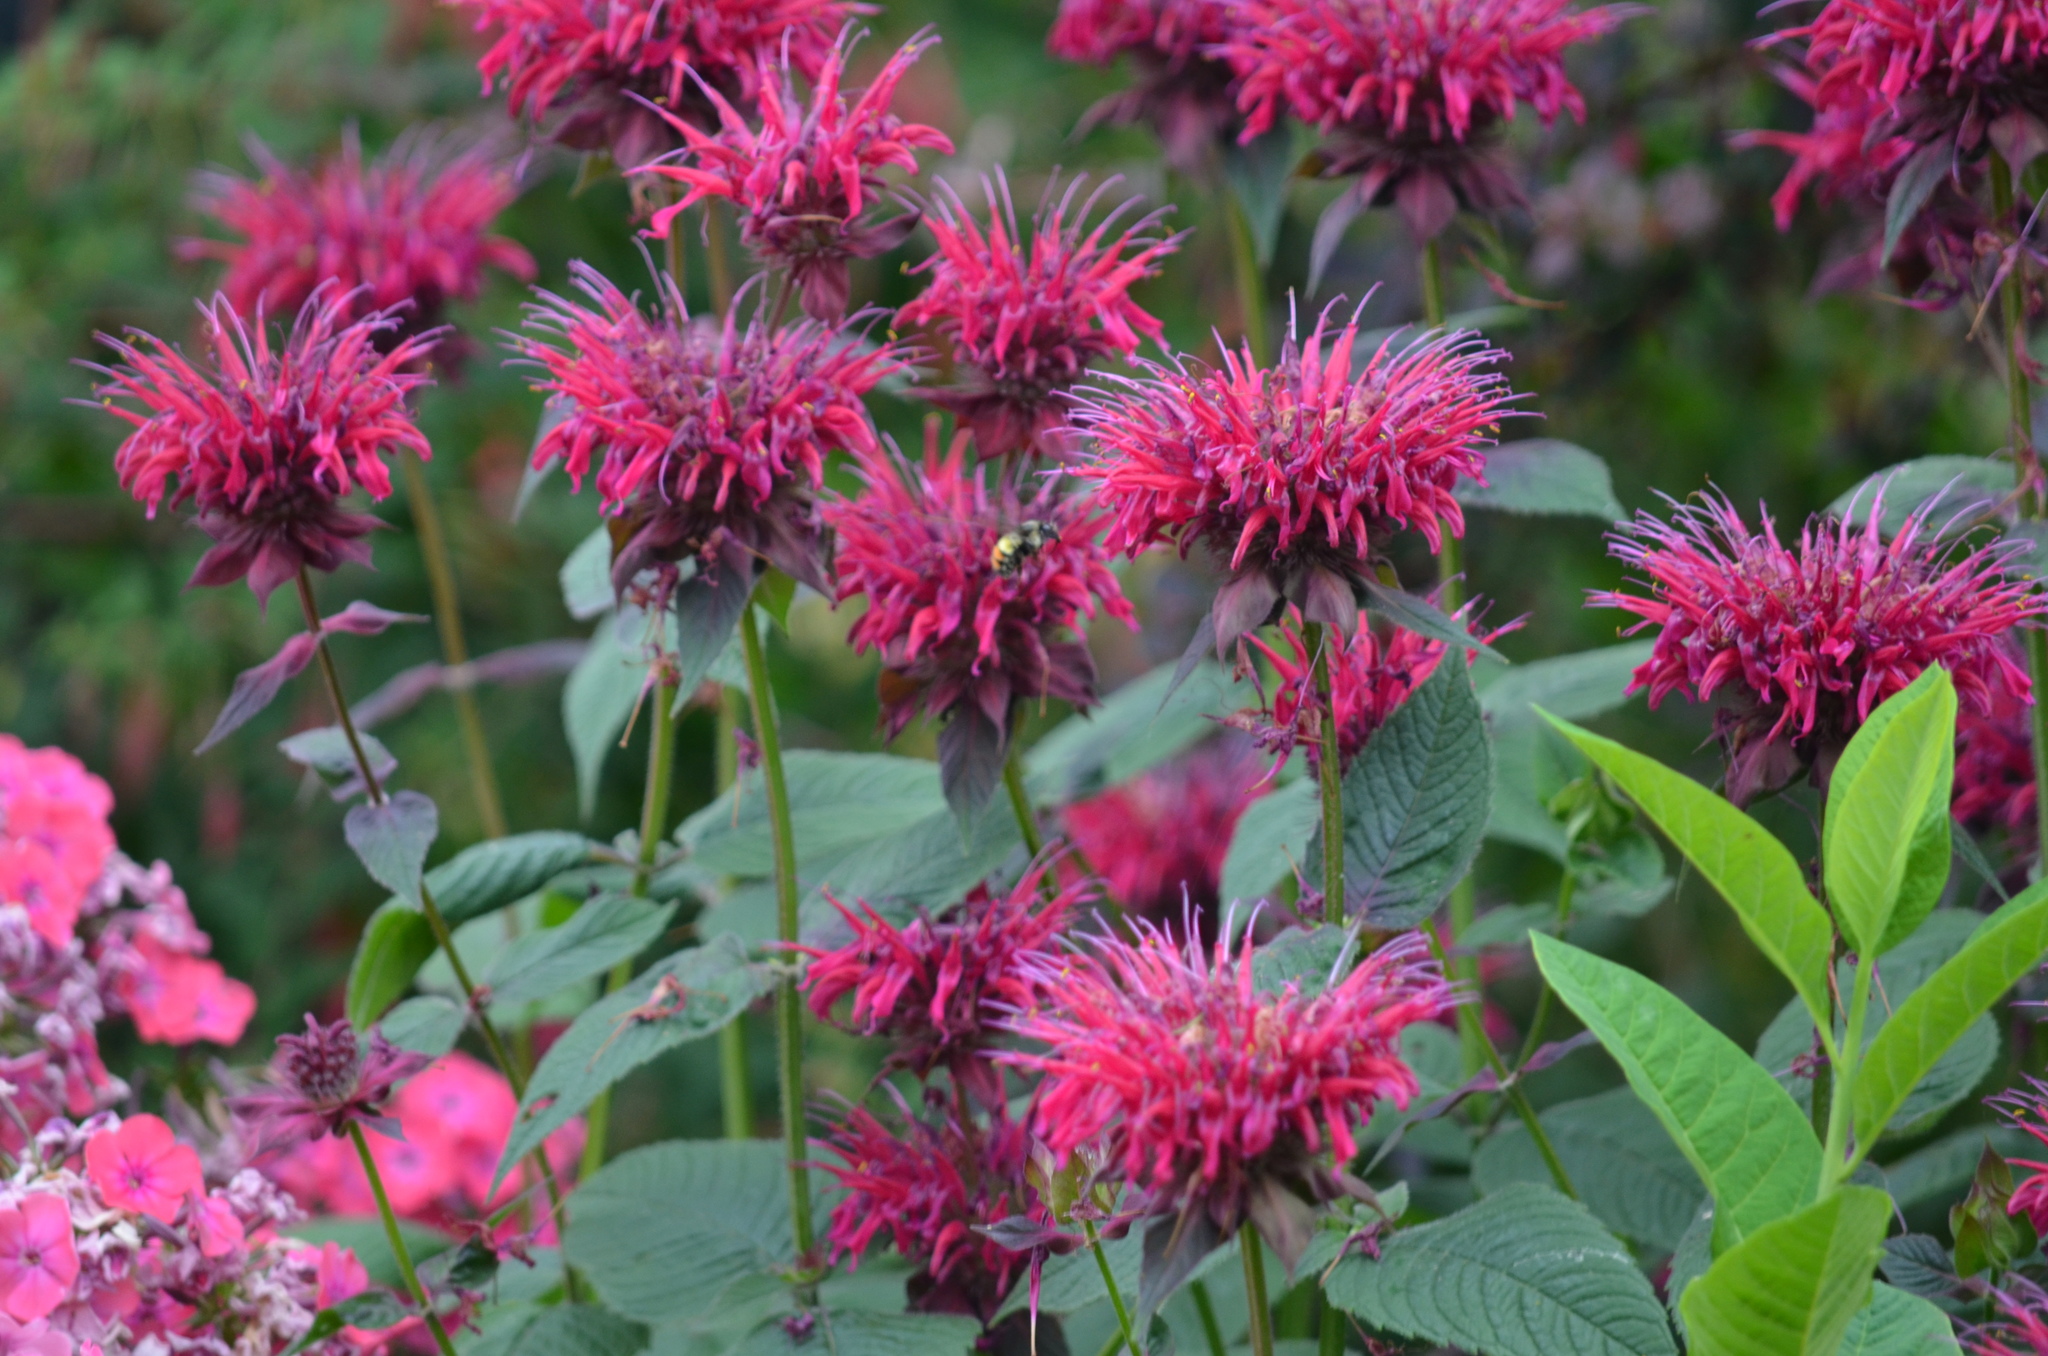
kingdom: Animalia
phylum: Arthropoda
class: Insecta
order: Hymenoptera
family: Apidae
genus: Bombus
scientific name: Bombus flavifrons
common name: Yellow head bumble bee
